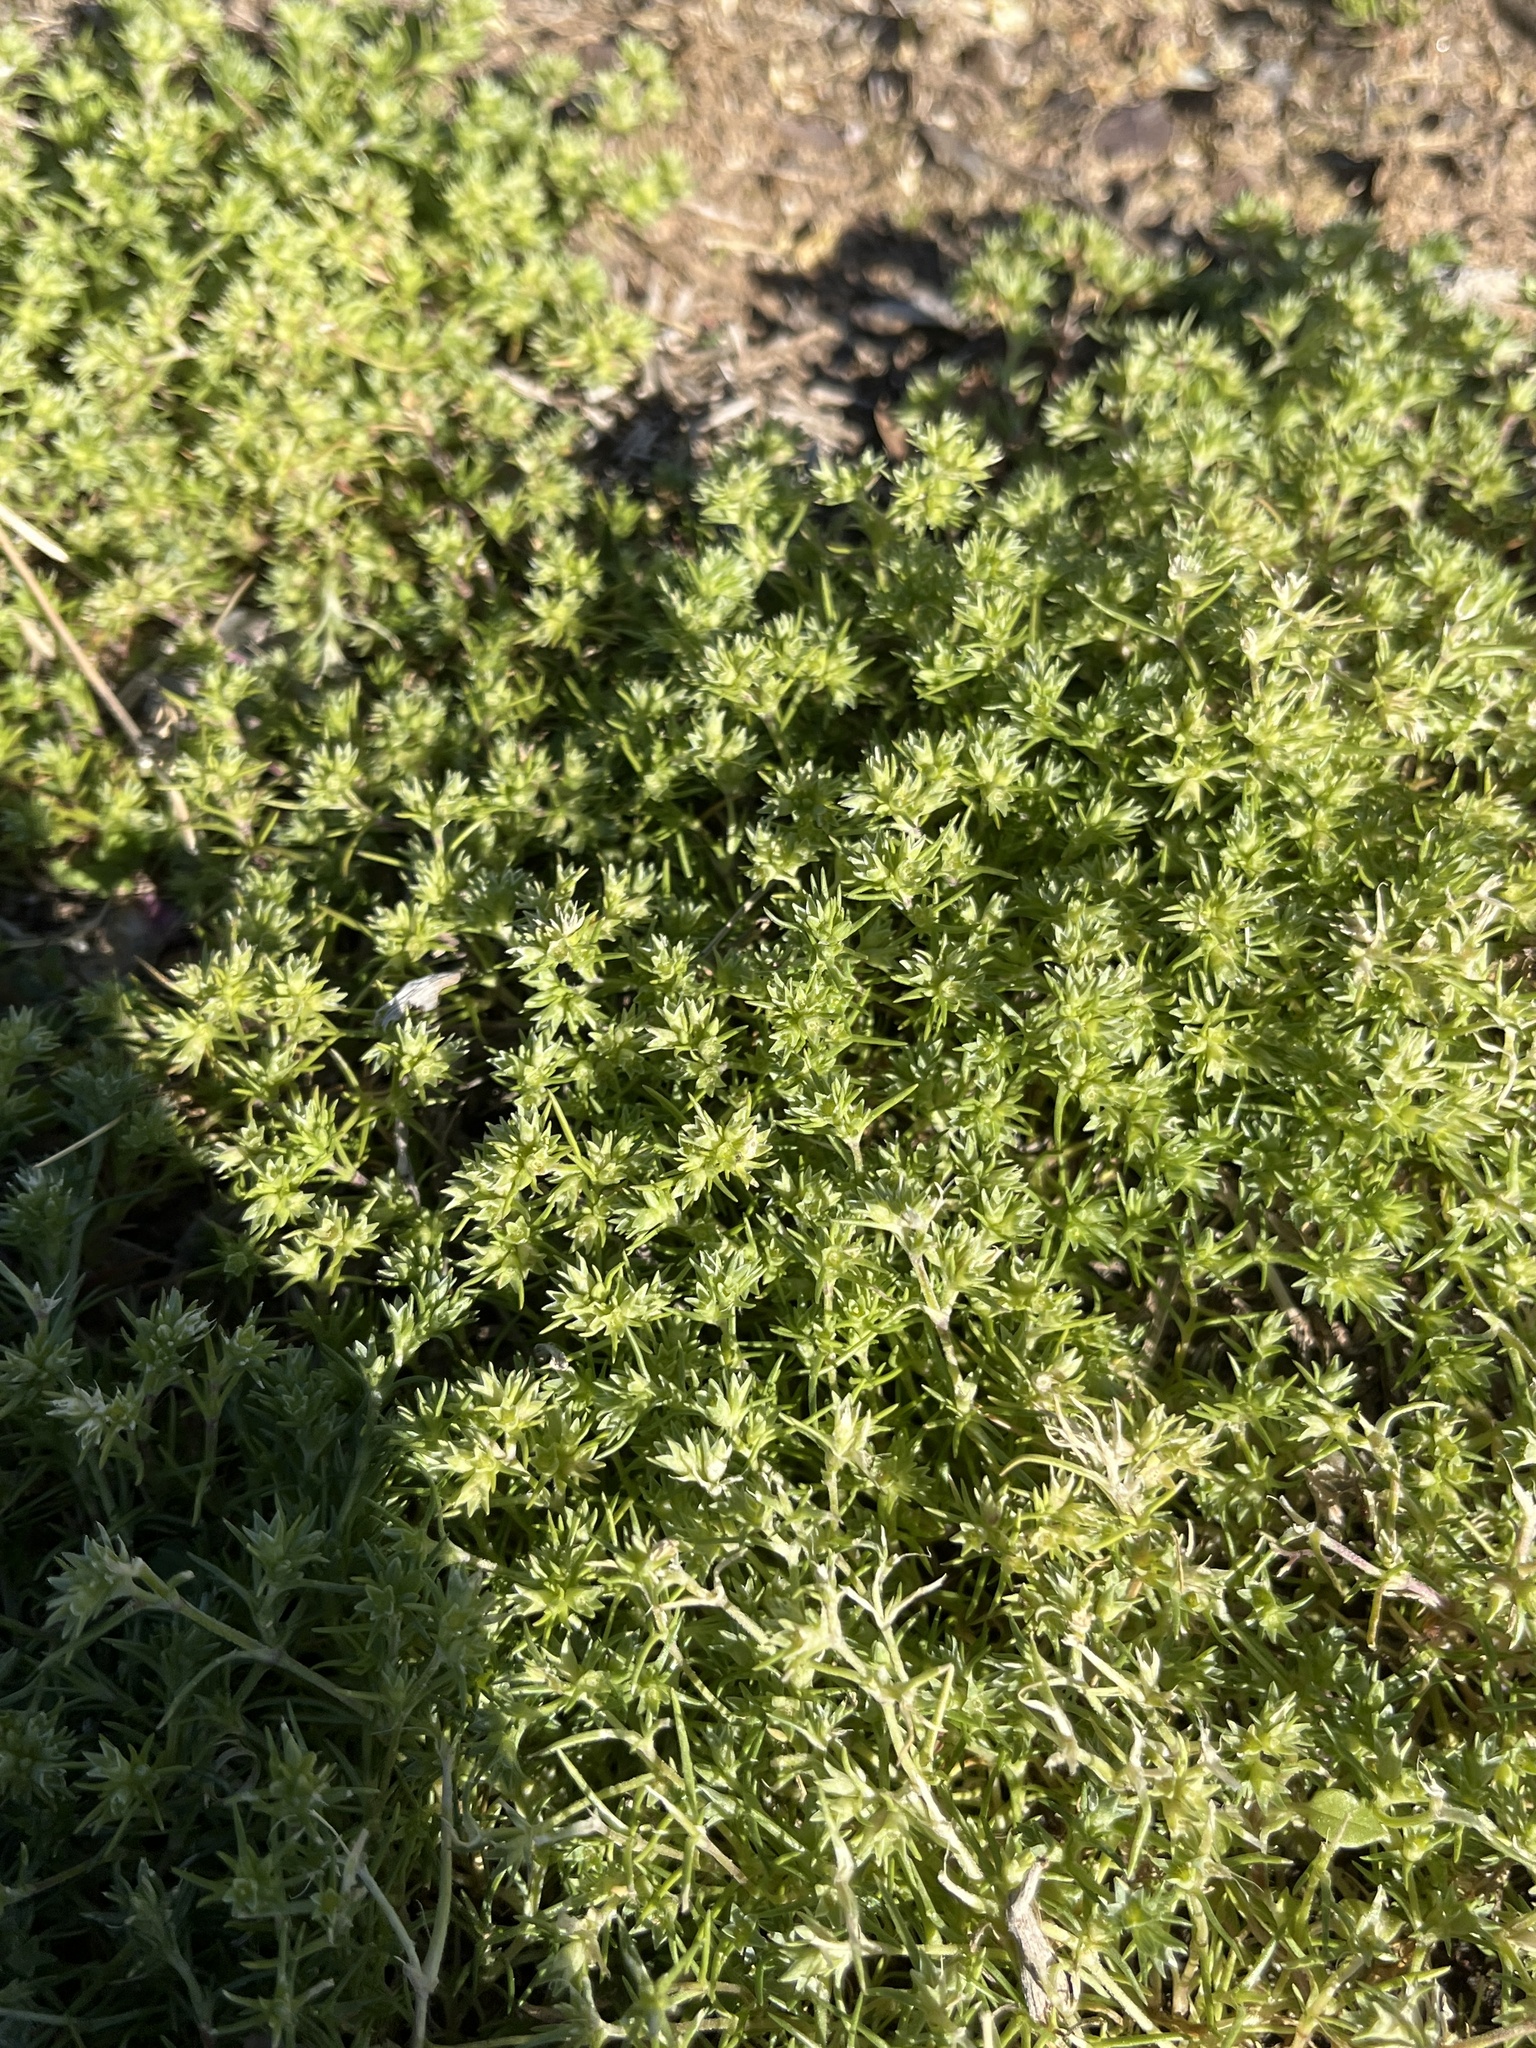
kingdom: Plantae
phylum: Tracheophyta
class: Magnoliopsida
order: Caryophyllales
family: Caryophyllaceae
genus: Scleranthus
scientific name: Scleranthus annuus
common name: Annual knawel
